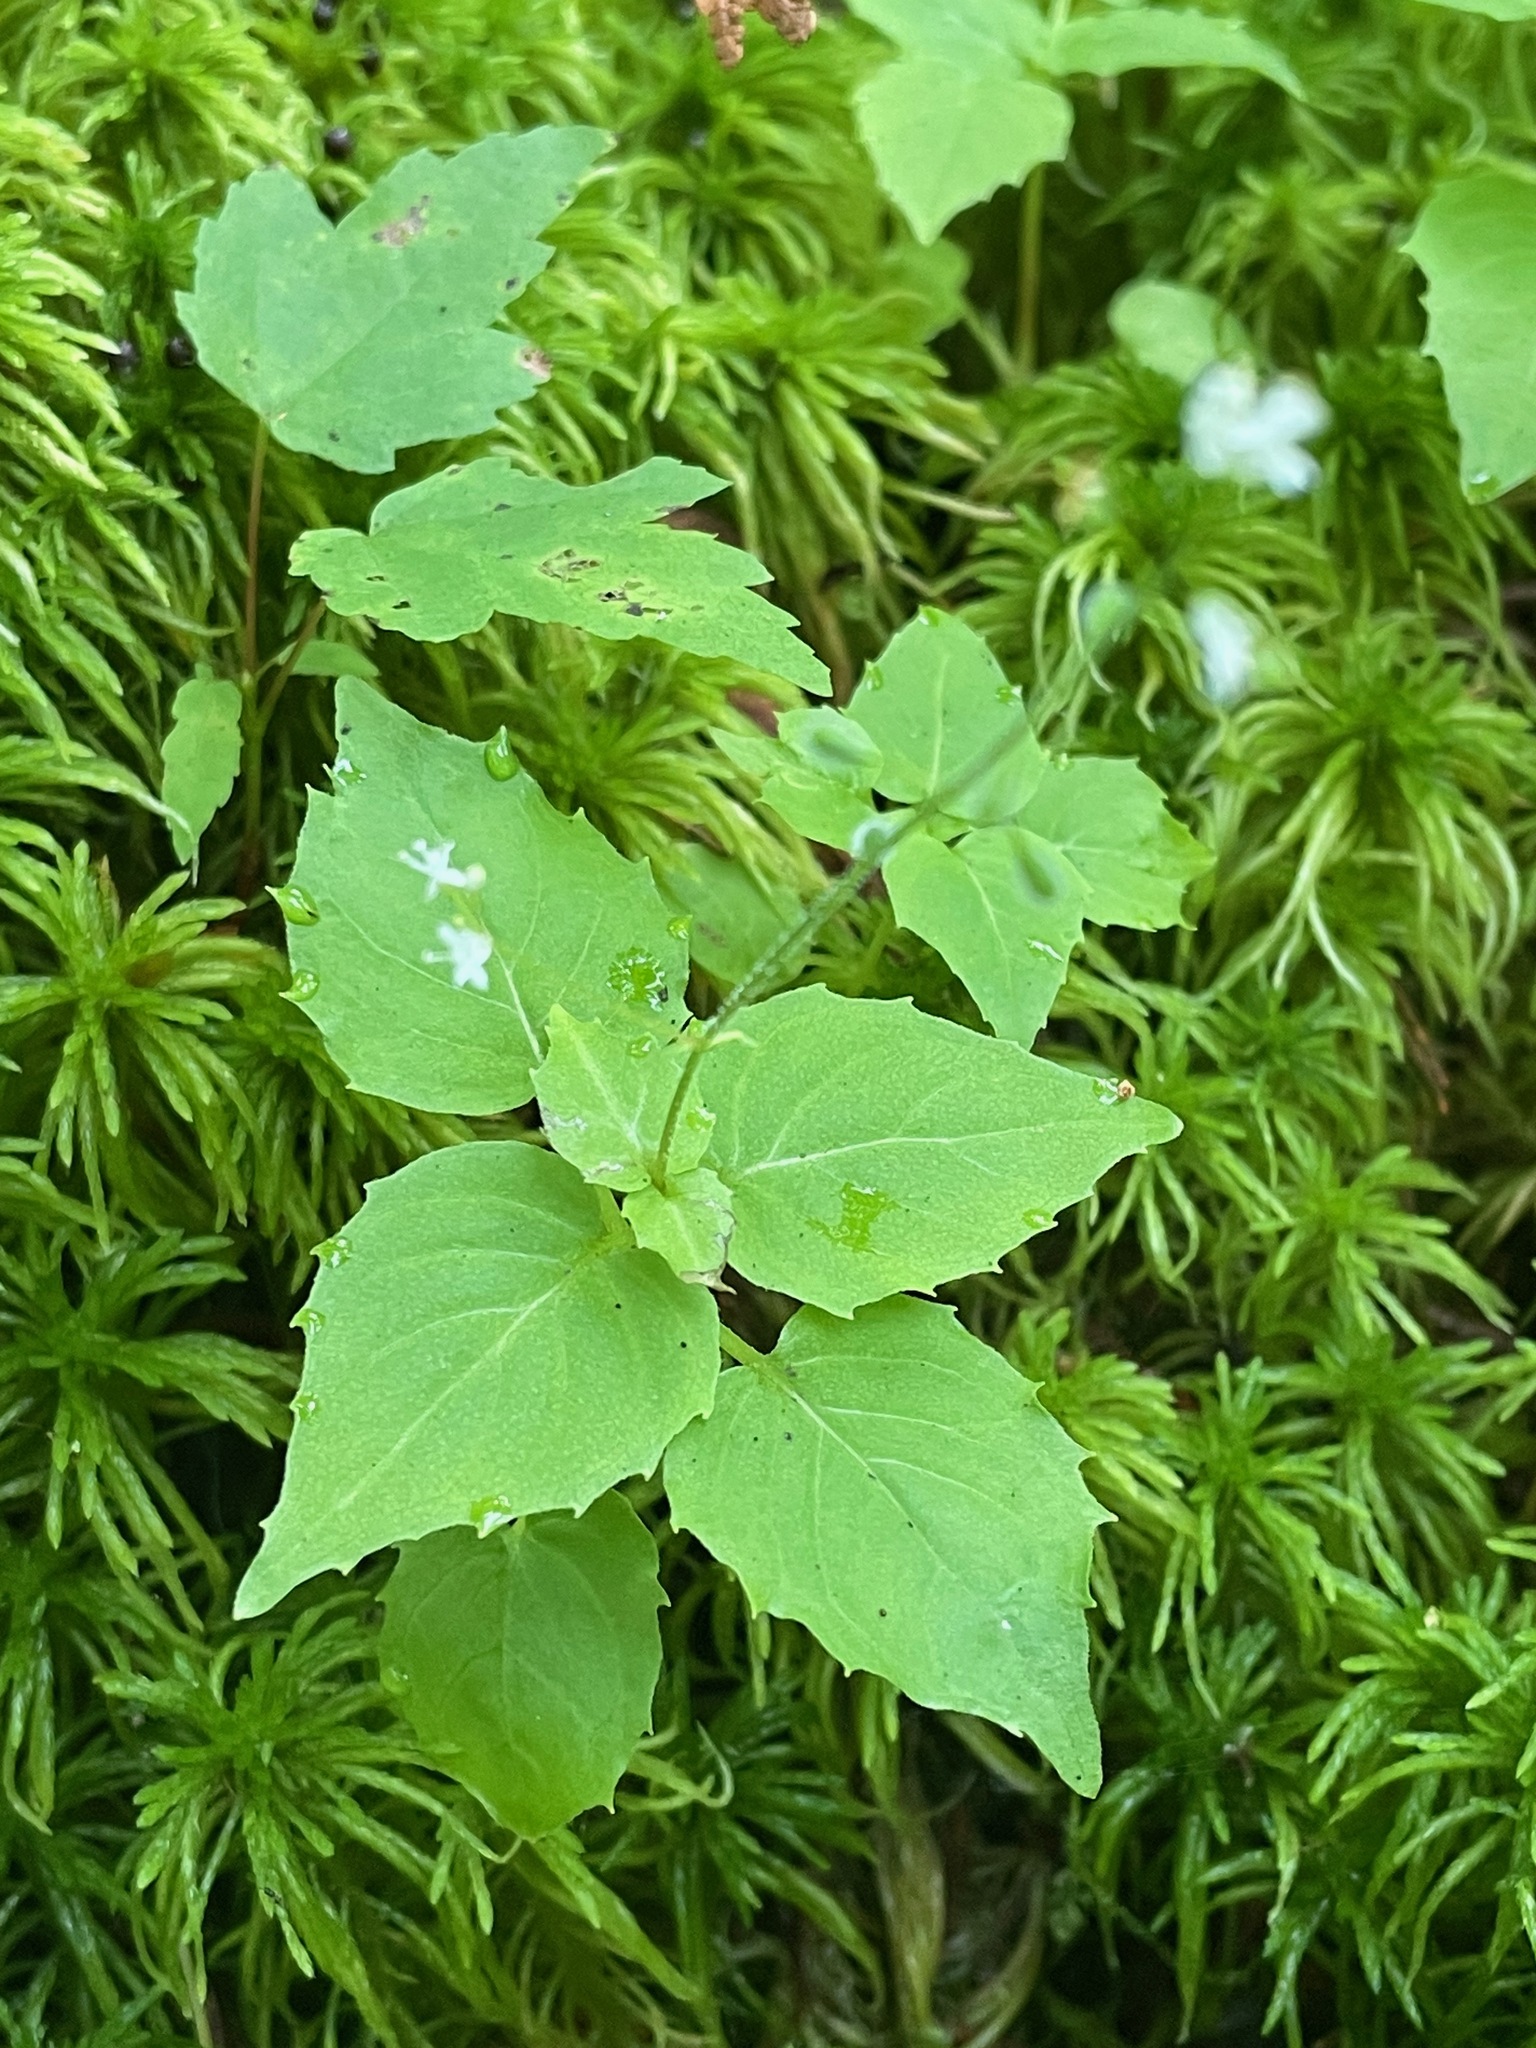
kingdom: Plantae
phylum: Tracheophyta
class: Magnoliopsida
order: Myrtales
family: Onagraceae
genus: Circaea
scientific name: Circaea alpina
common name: Alpine enchanter's-nightshade
